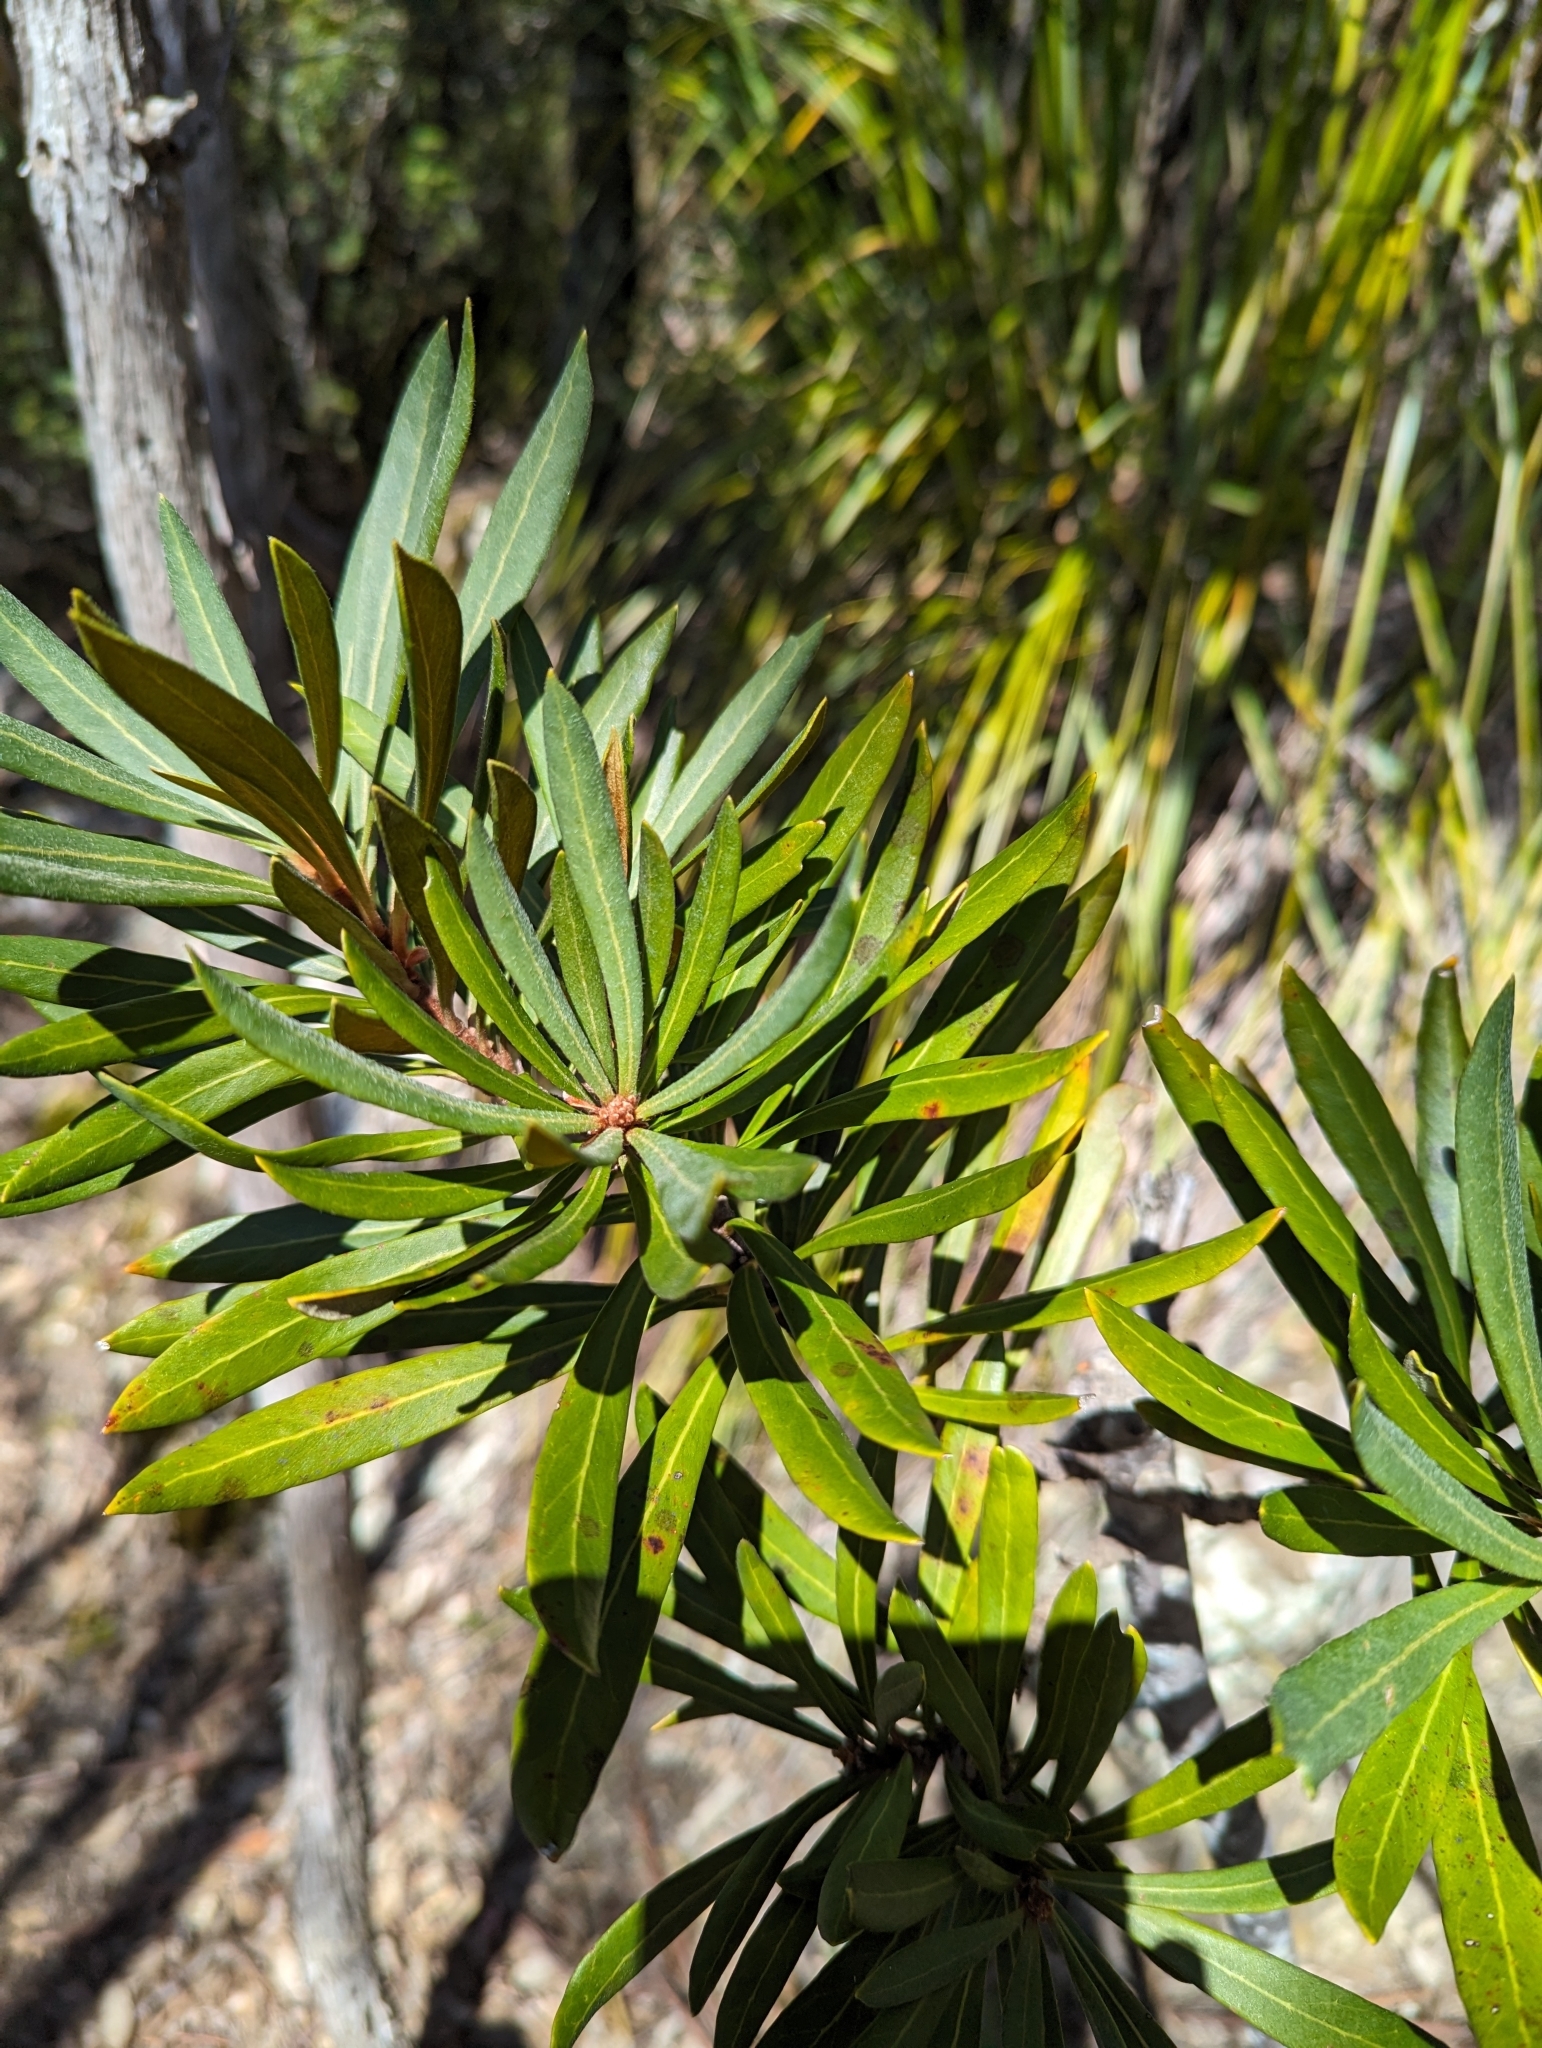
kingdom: Plantae
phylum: Tracheophyta
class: Magnoliopsida
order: Proteales
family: Proteaceae
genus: Telopea
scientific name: Telopea truncata
